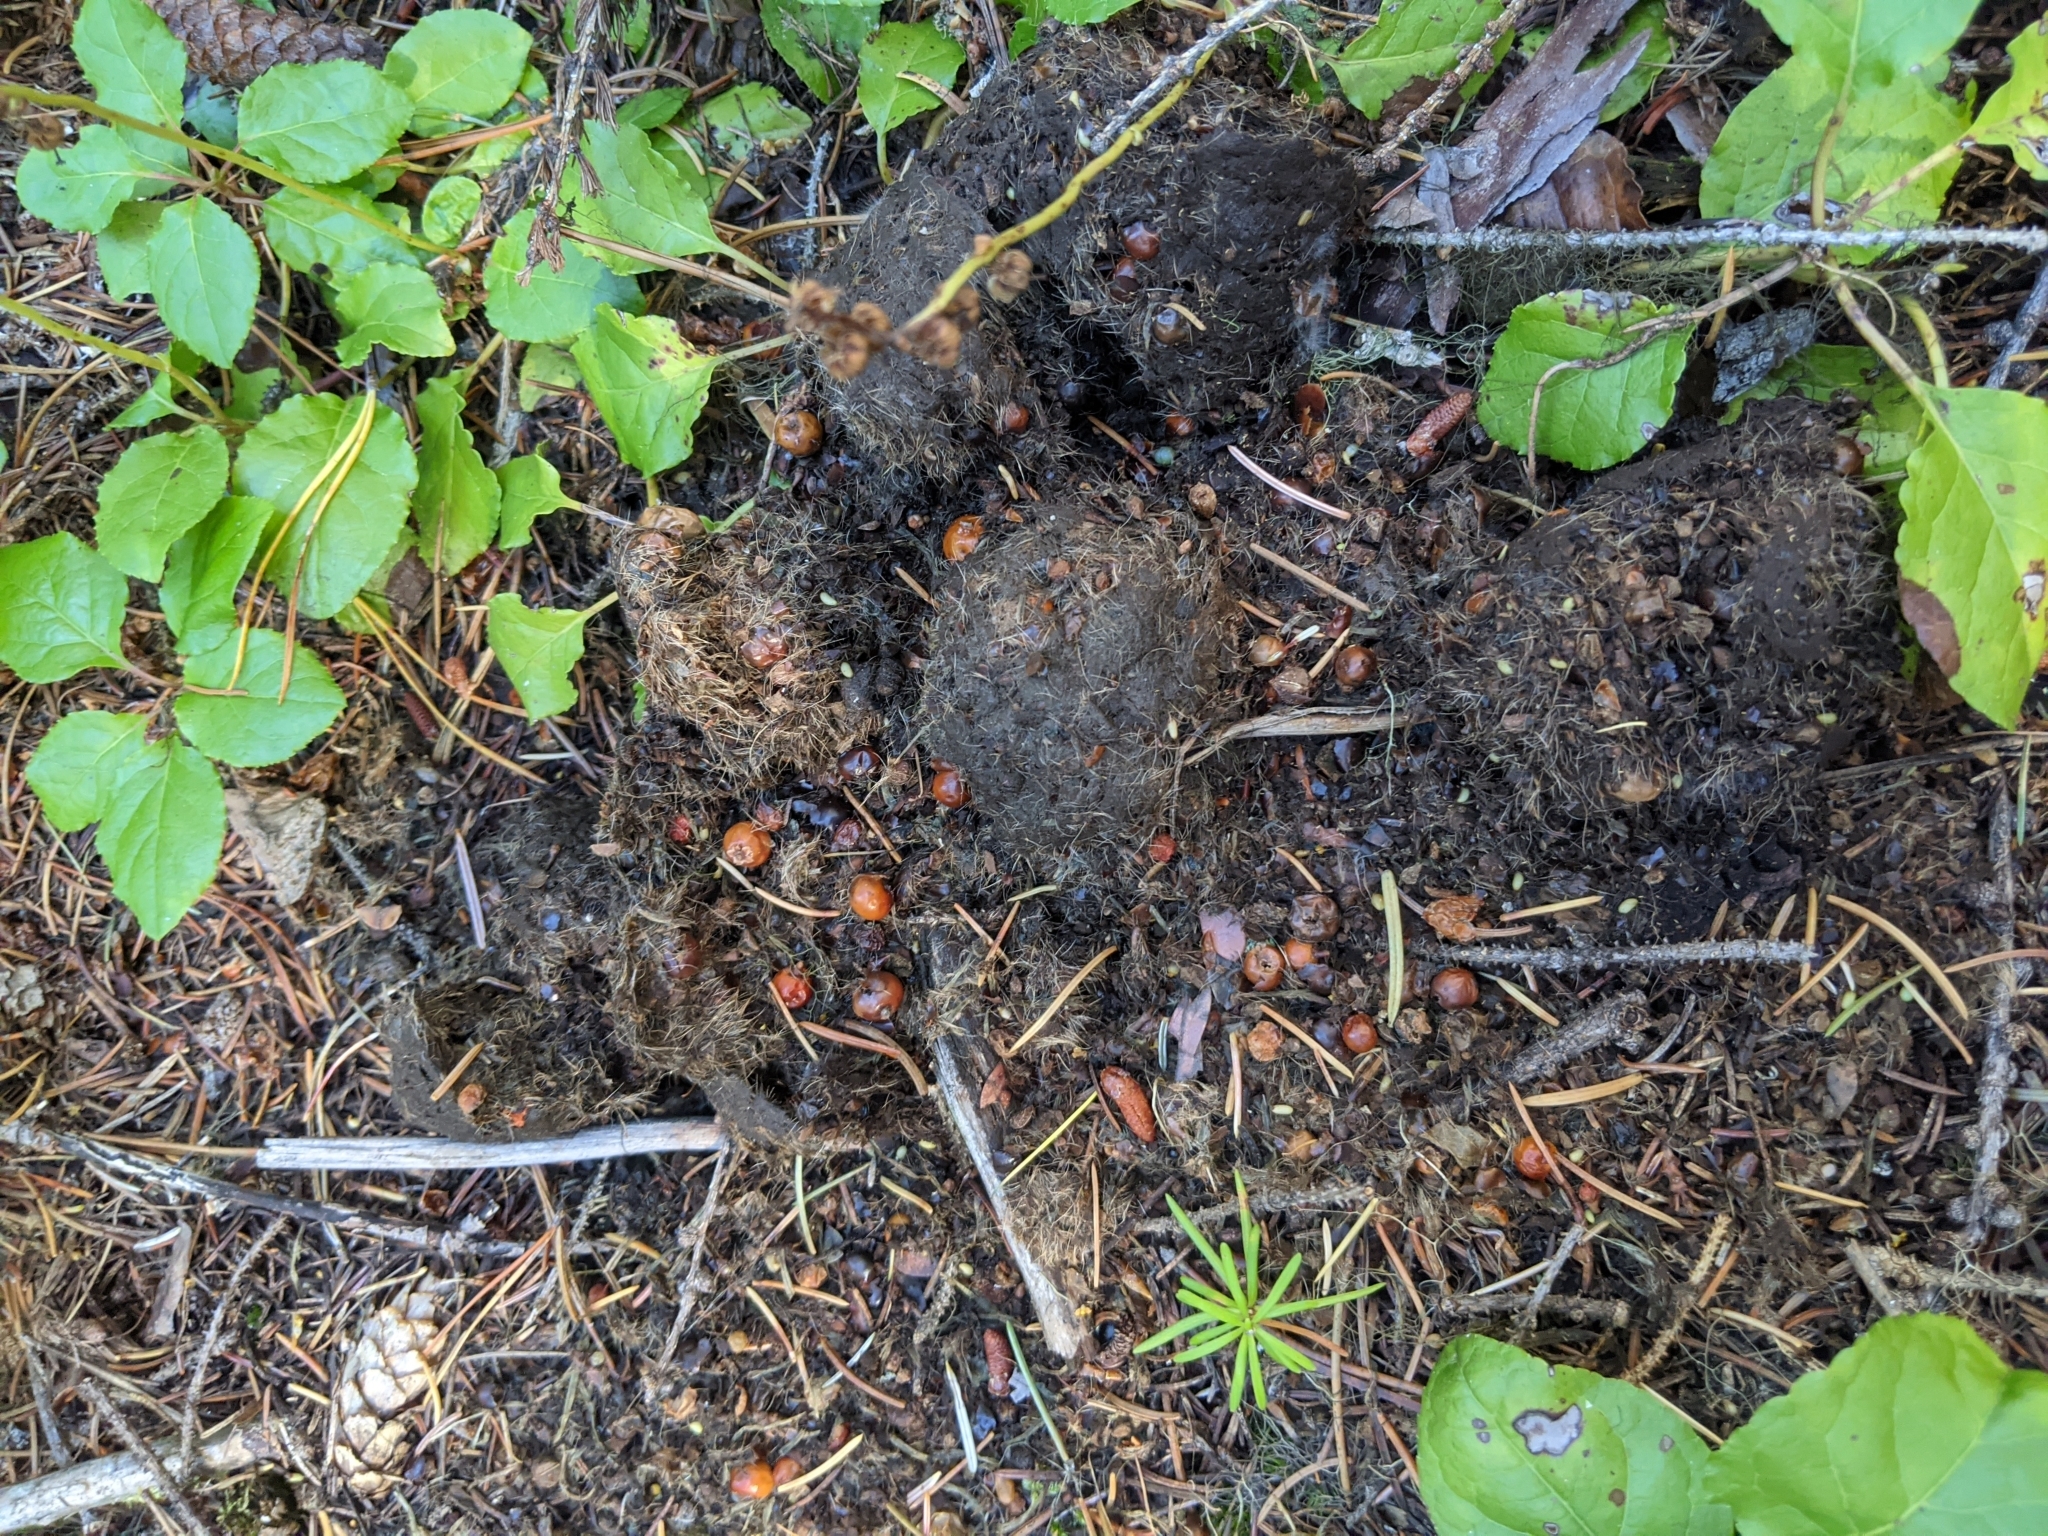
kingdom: Animalia
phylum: Chordata
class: Mammalia
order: Carnivora
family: Ursidae
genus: Ursus
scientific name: Ursus americanus
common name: American black bear
